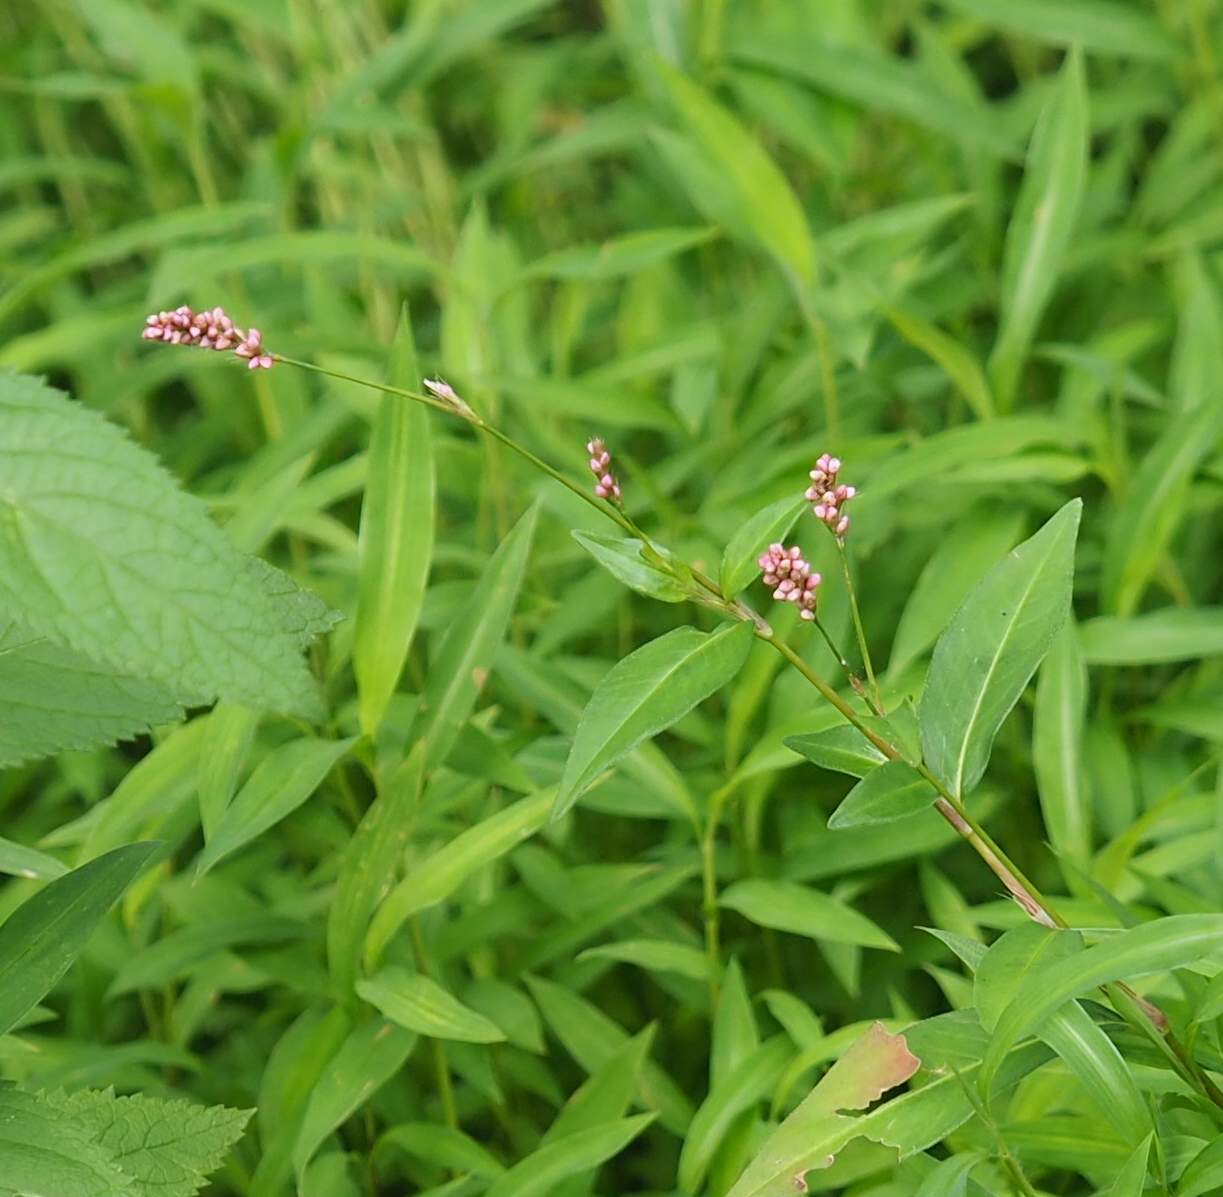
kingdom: Plantae
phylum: Tracheophyta
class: Magnoliopsida
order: Caryophyllales
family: Polygonaceae
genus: Persicaria
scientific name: Persicaria maculosa
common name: Redshank
